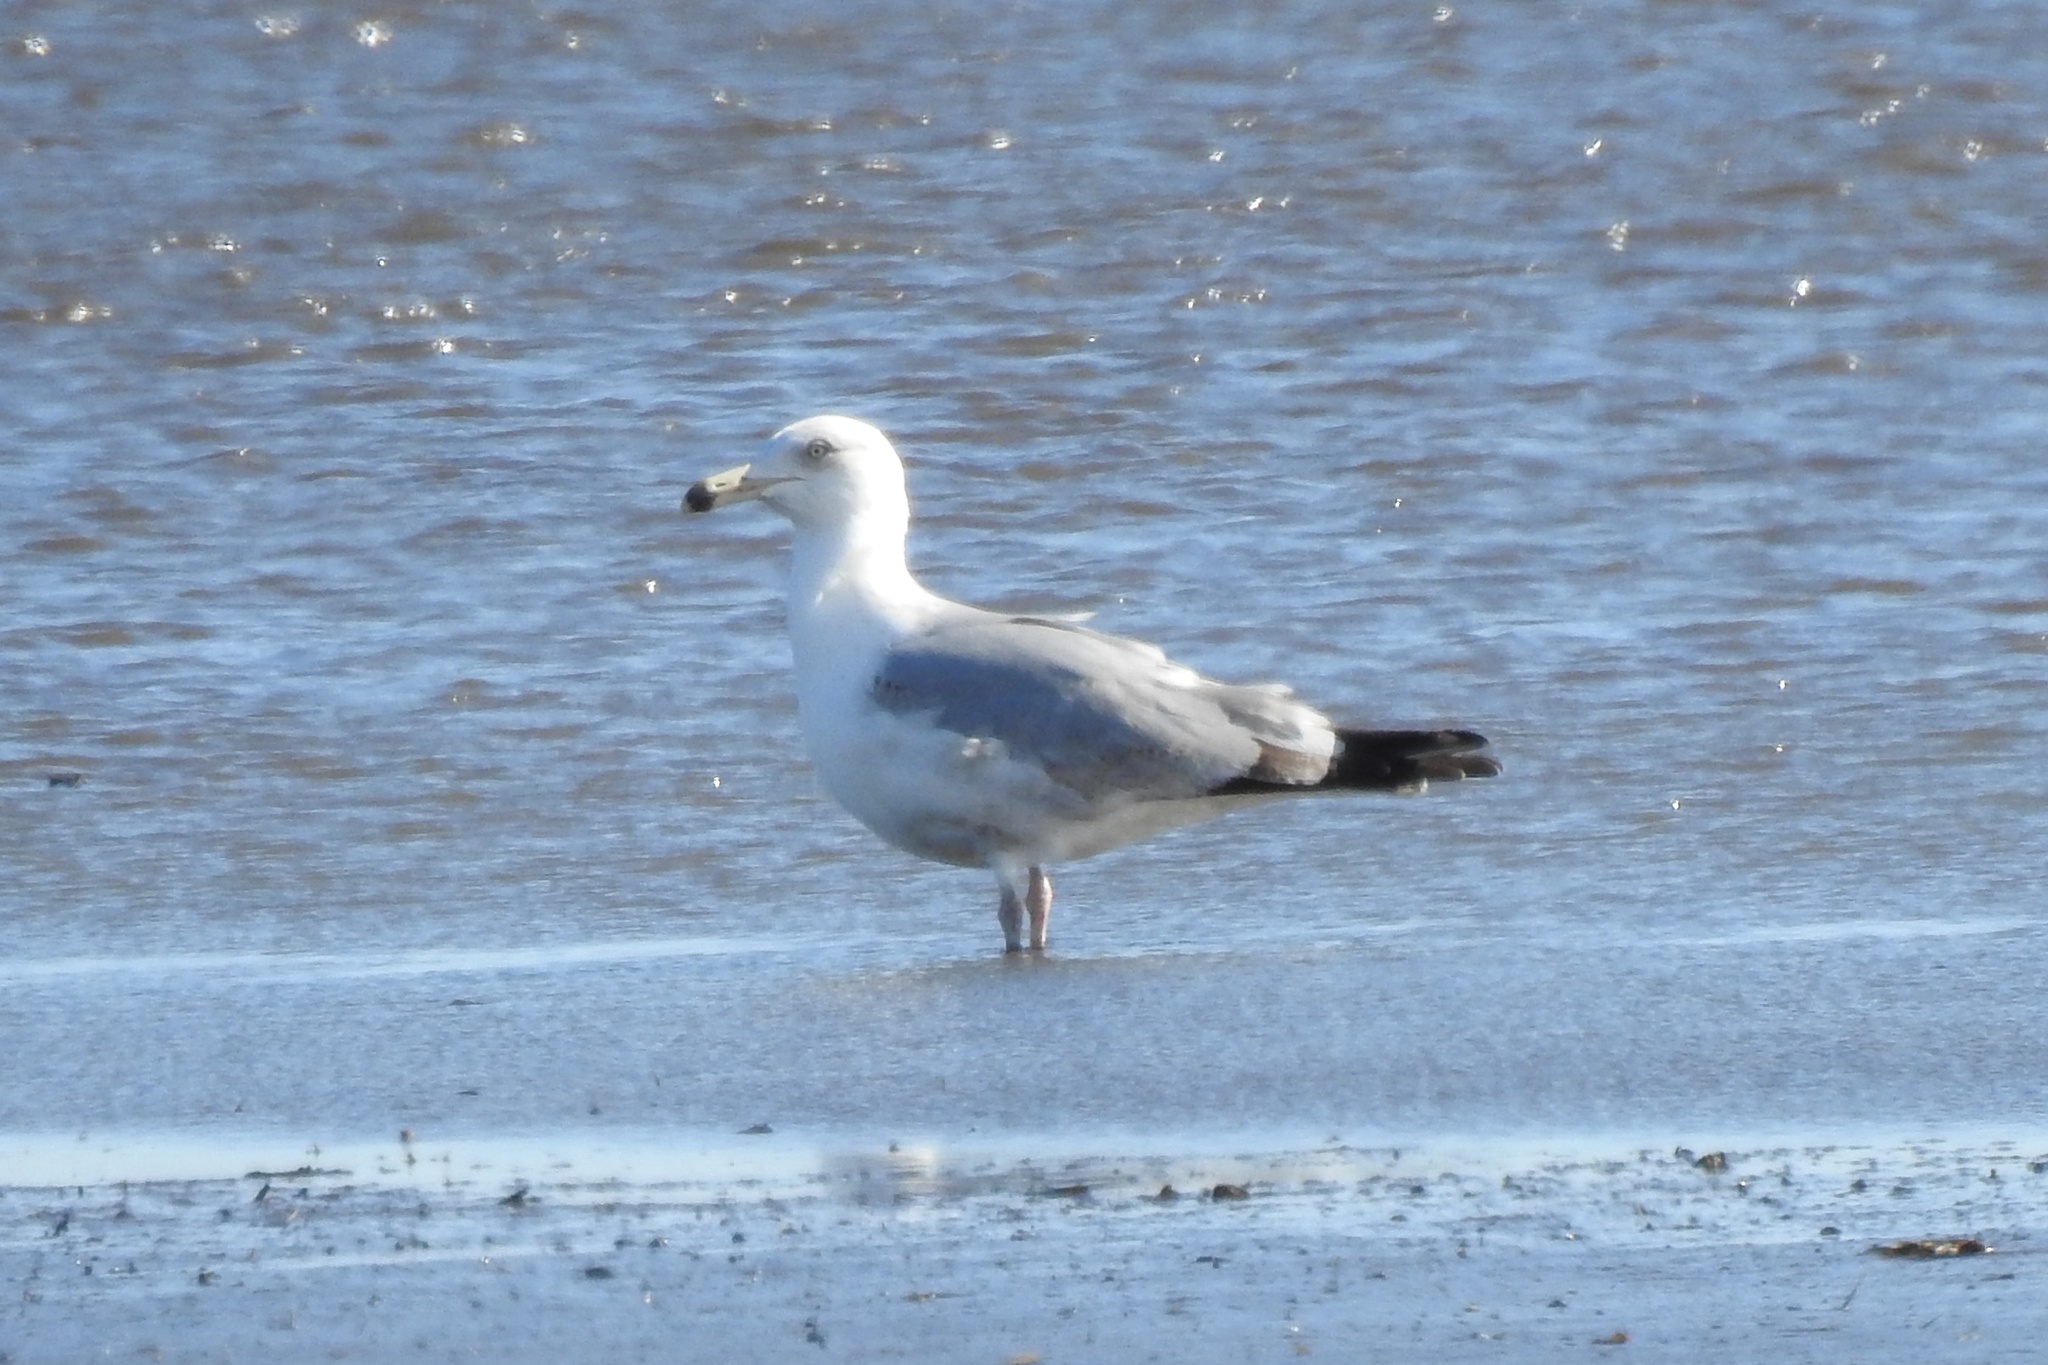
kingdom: Animalia
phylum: Chordata
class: Aves
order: Charadriiformes
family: Laridae
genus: Larus
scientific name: Larus delawarensis
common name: Ring-billed gull
